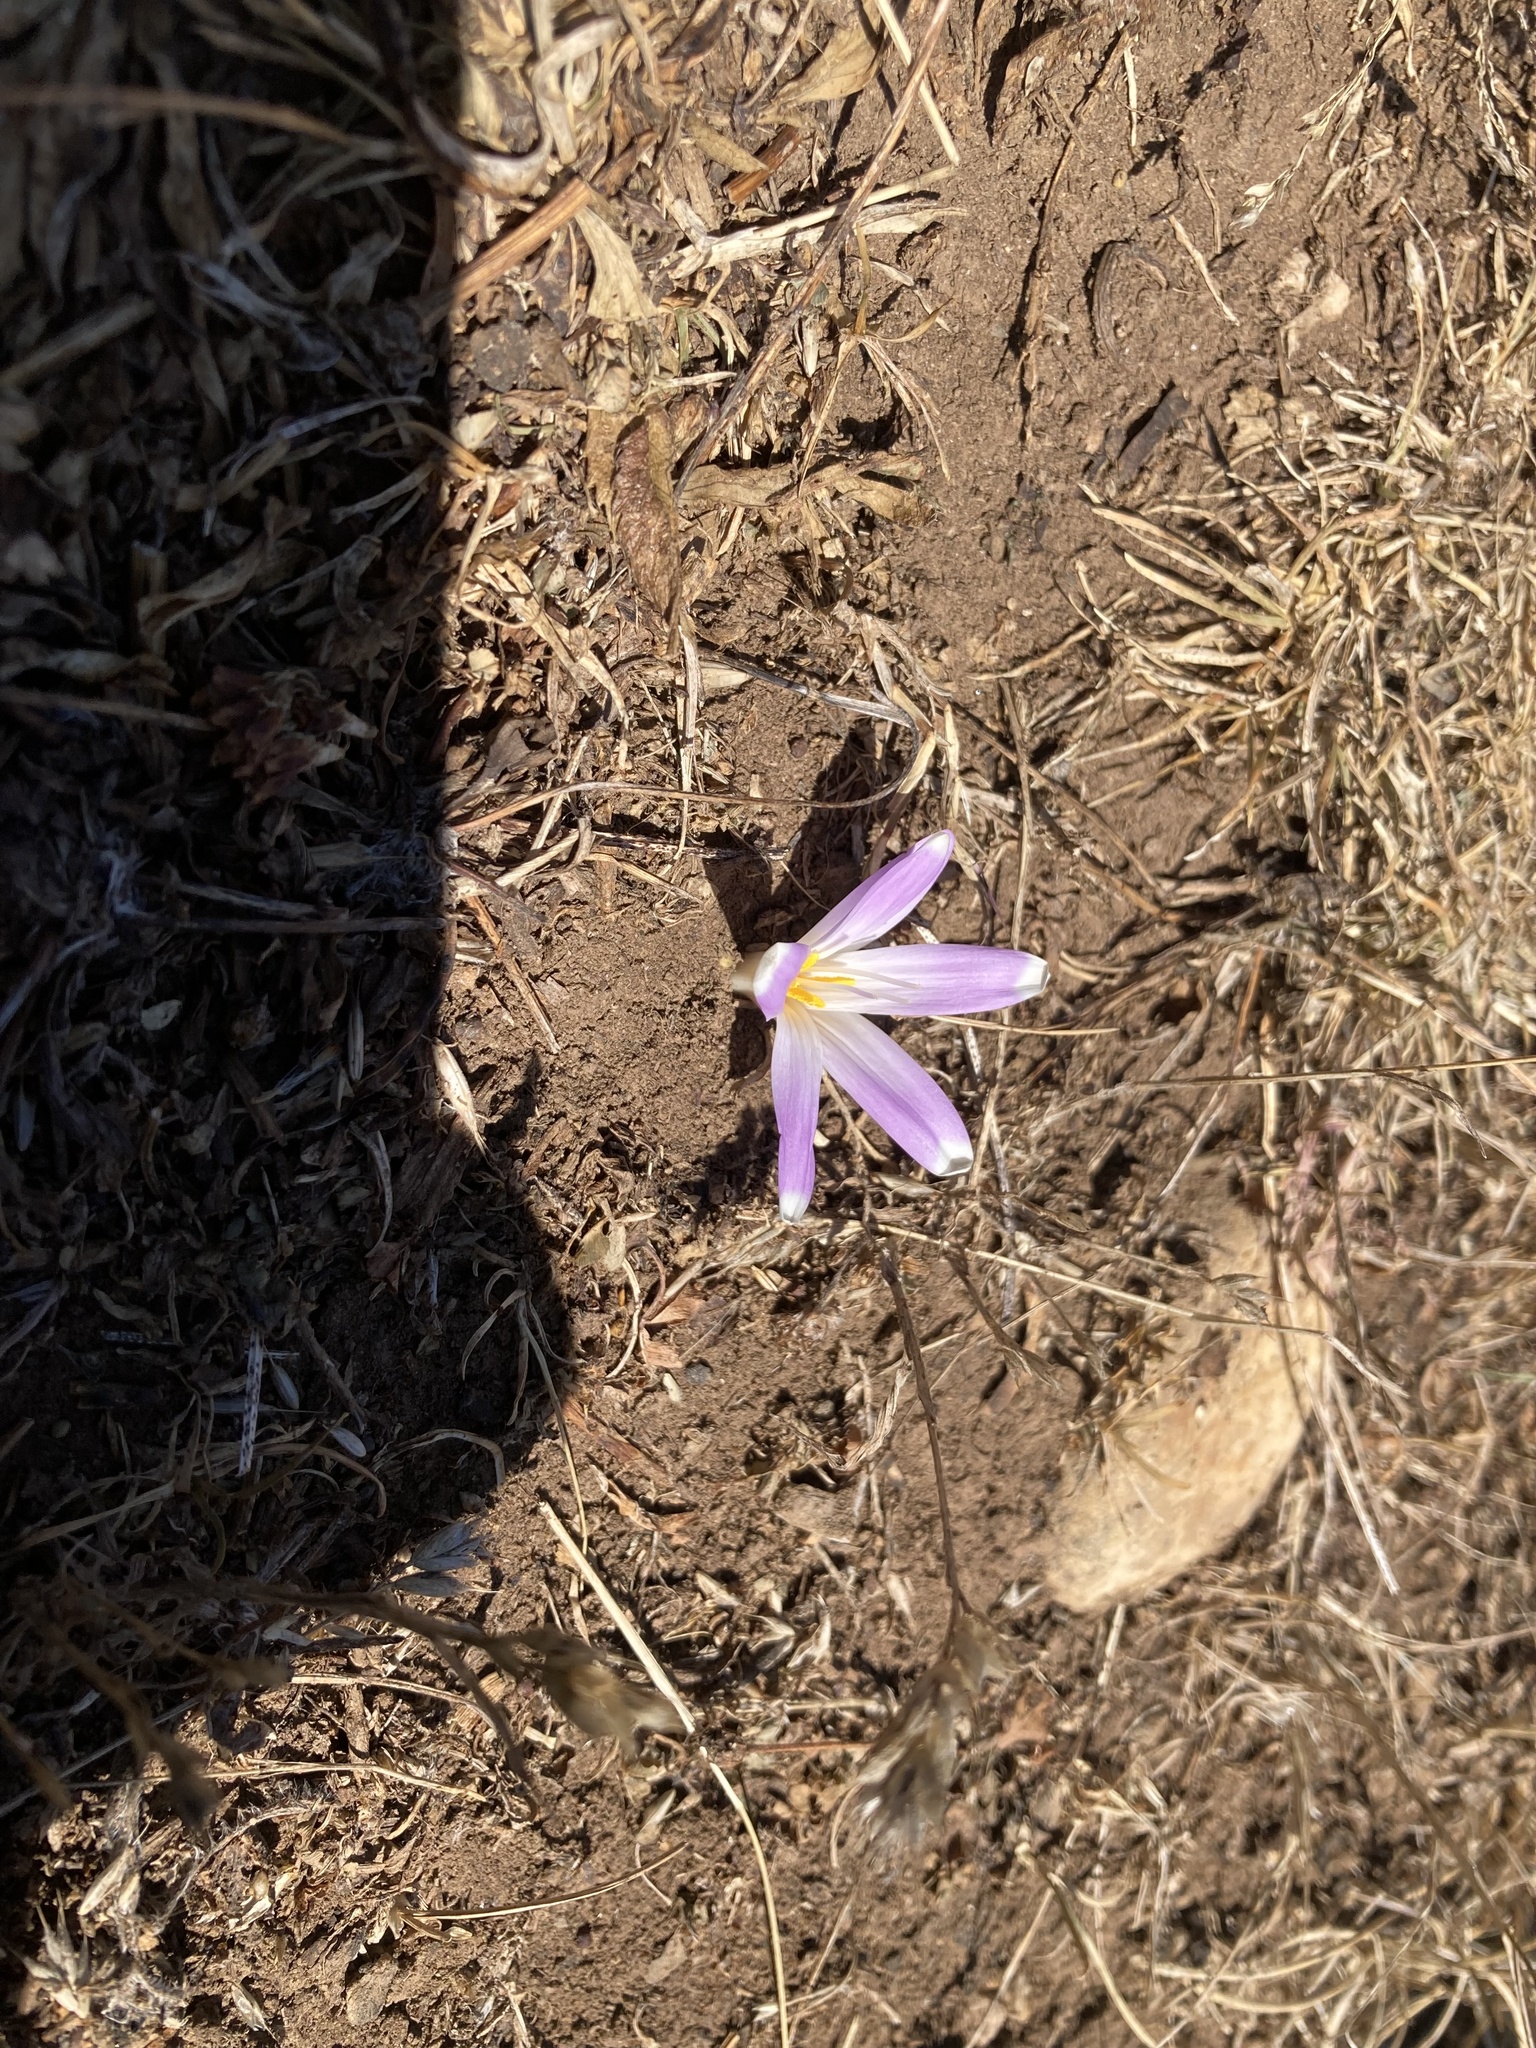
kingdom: Plantae
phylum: Tracheophyta
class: Liliopsida
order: Liliales
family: Colchicaceae
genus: Colchicum
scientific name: Colchicum montanum
